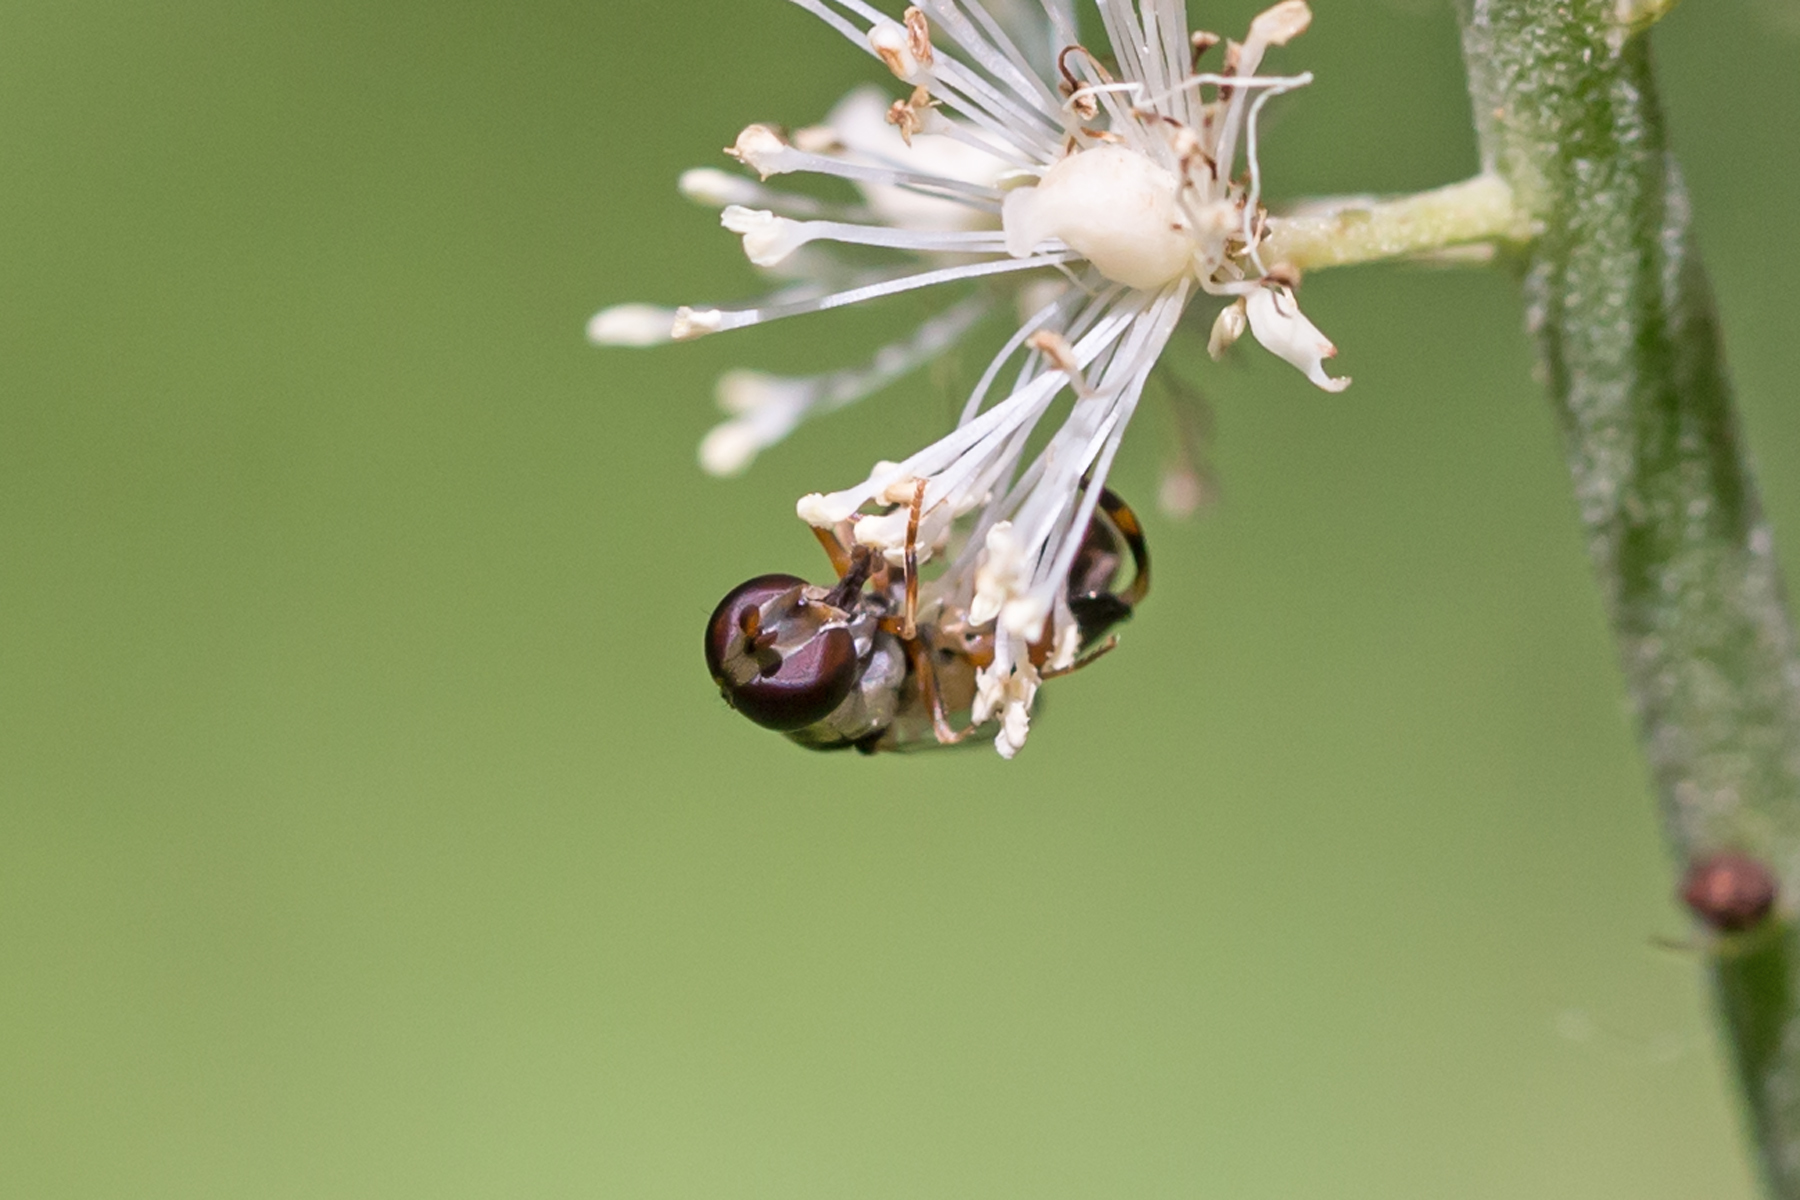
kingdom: Animalia
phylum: Arthropoda
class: Insecta
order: Diptera
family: Syrphidae
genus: Syritta
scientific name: Syritta pipiens
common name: Hover fly
